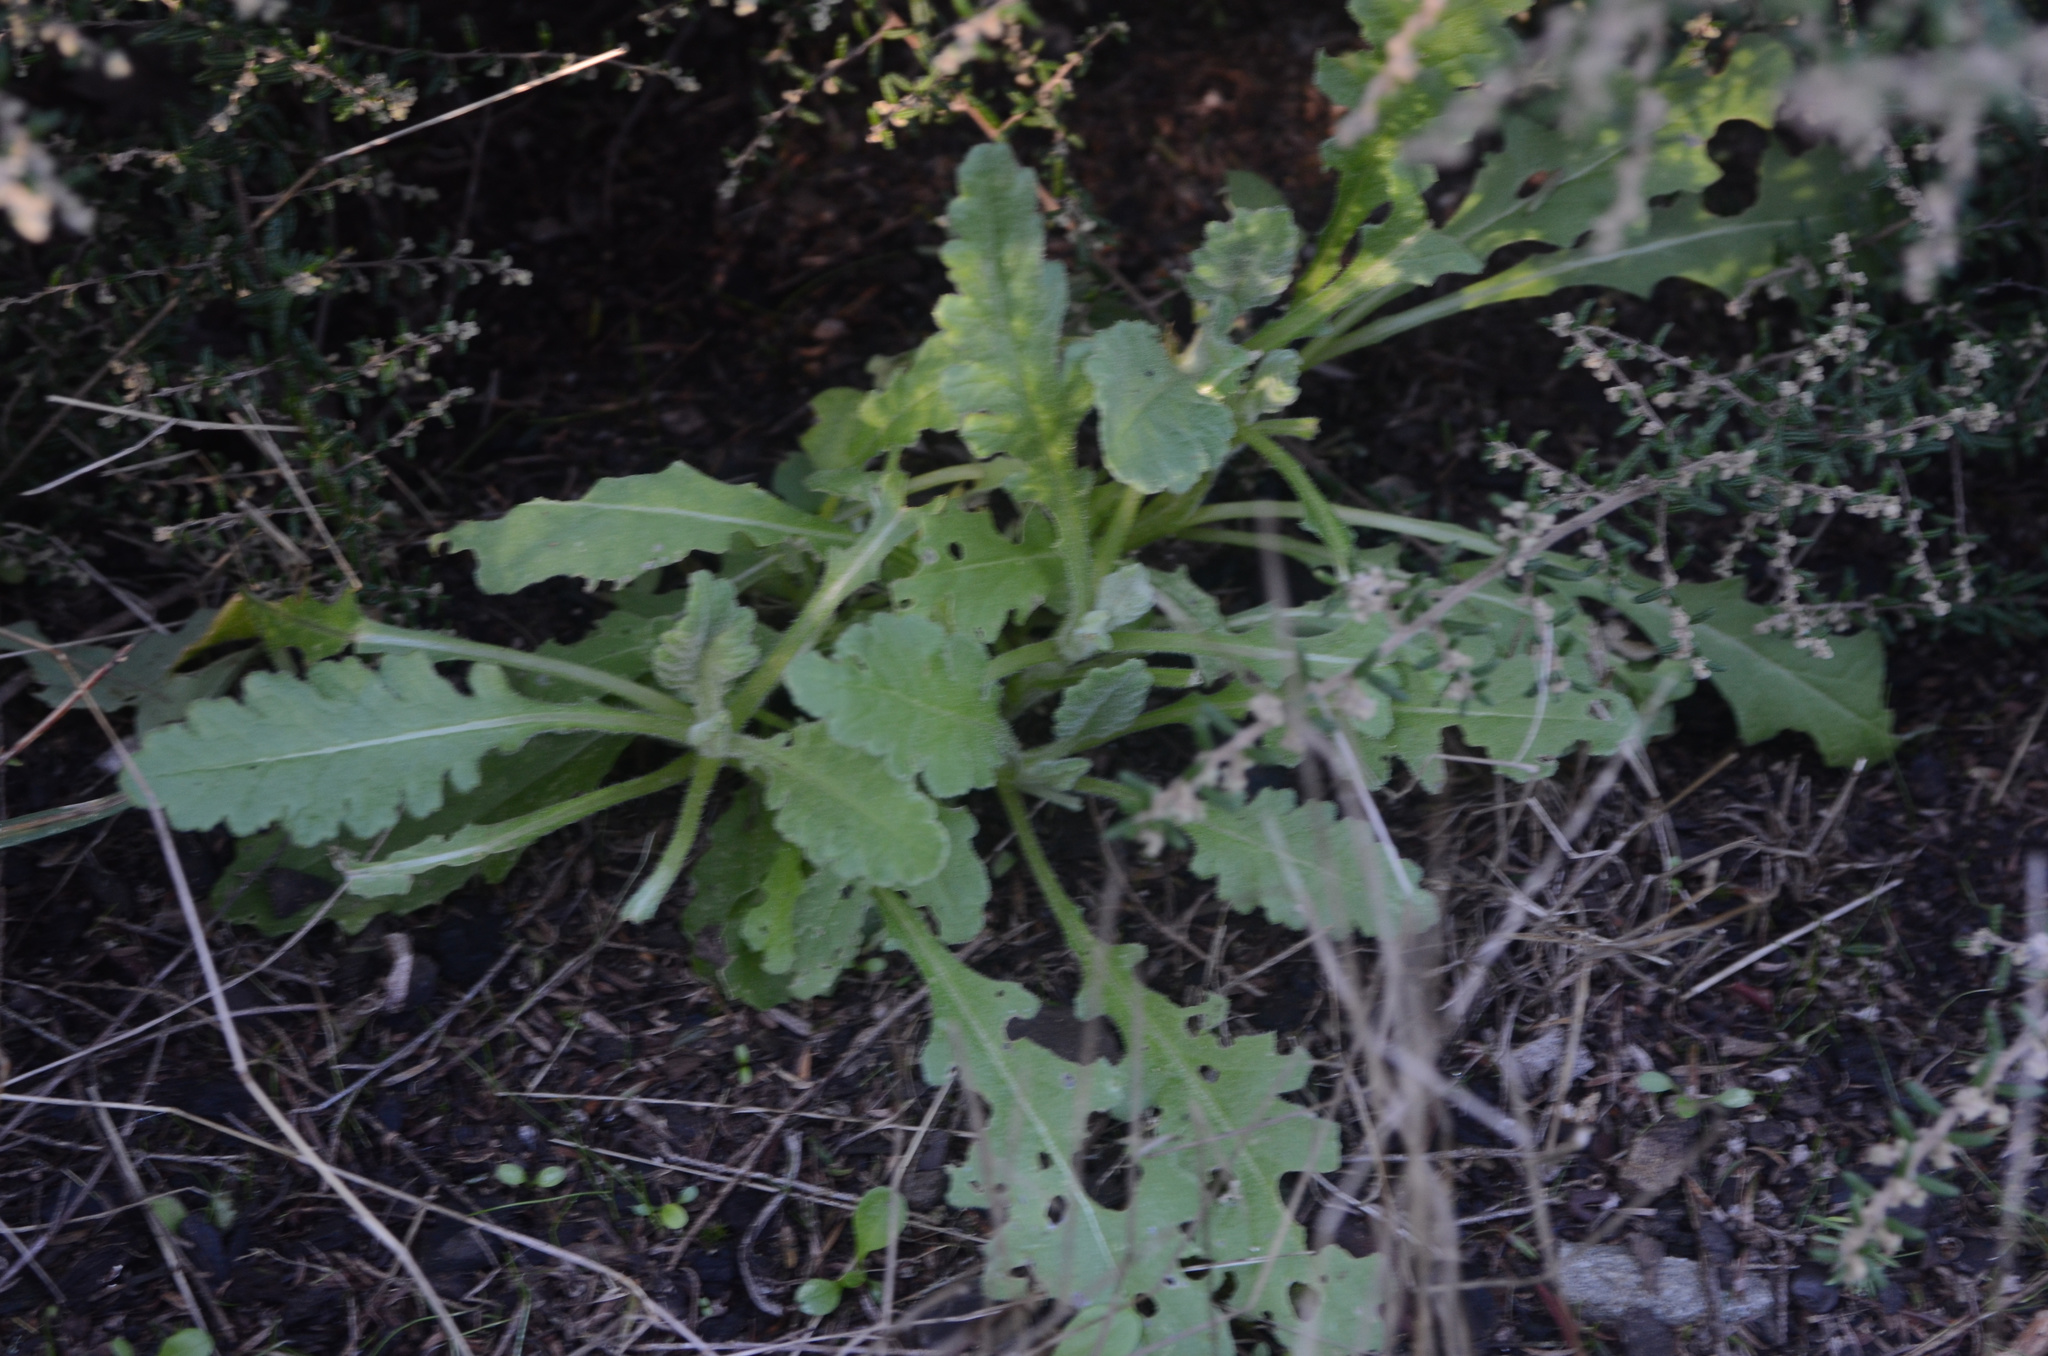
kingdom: Plantae
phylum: Tracheophyta
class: Magnoliopsida
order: Asterales
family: Asteraceae
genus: Senecio
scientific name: Senecio glomeratus
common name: Cutleaf burnweed
